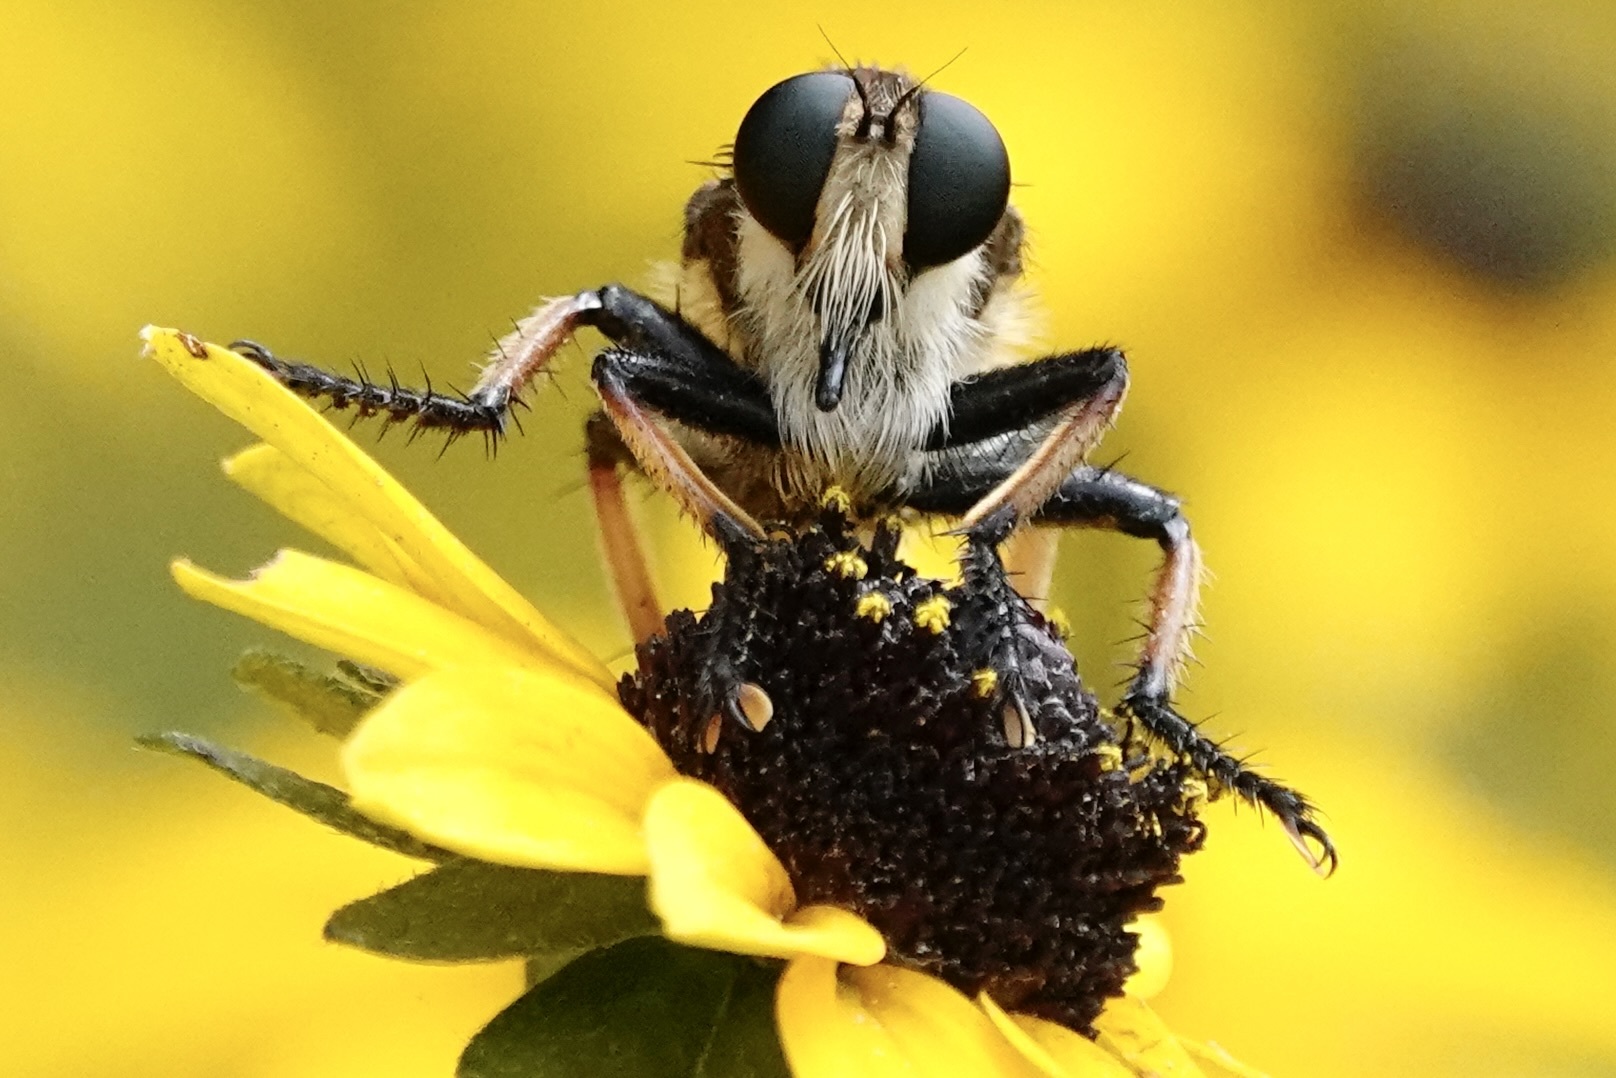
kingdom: Animalia
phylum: Arthropoda
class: Insecta
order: Diptera
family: Asilidae
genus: Promachus
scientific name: Promachus rufipes
